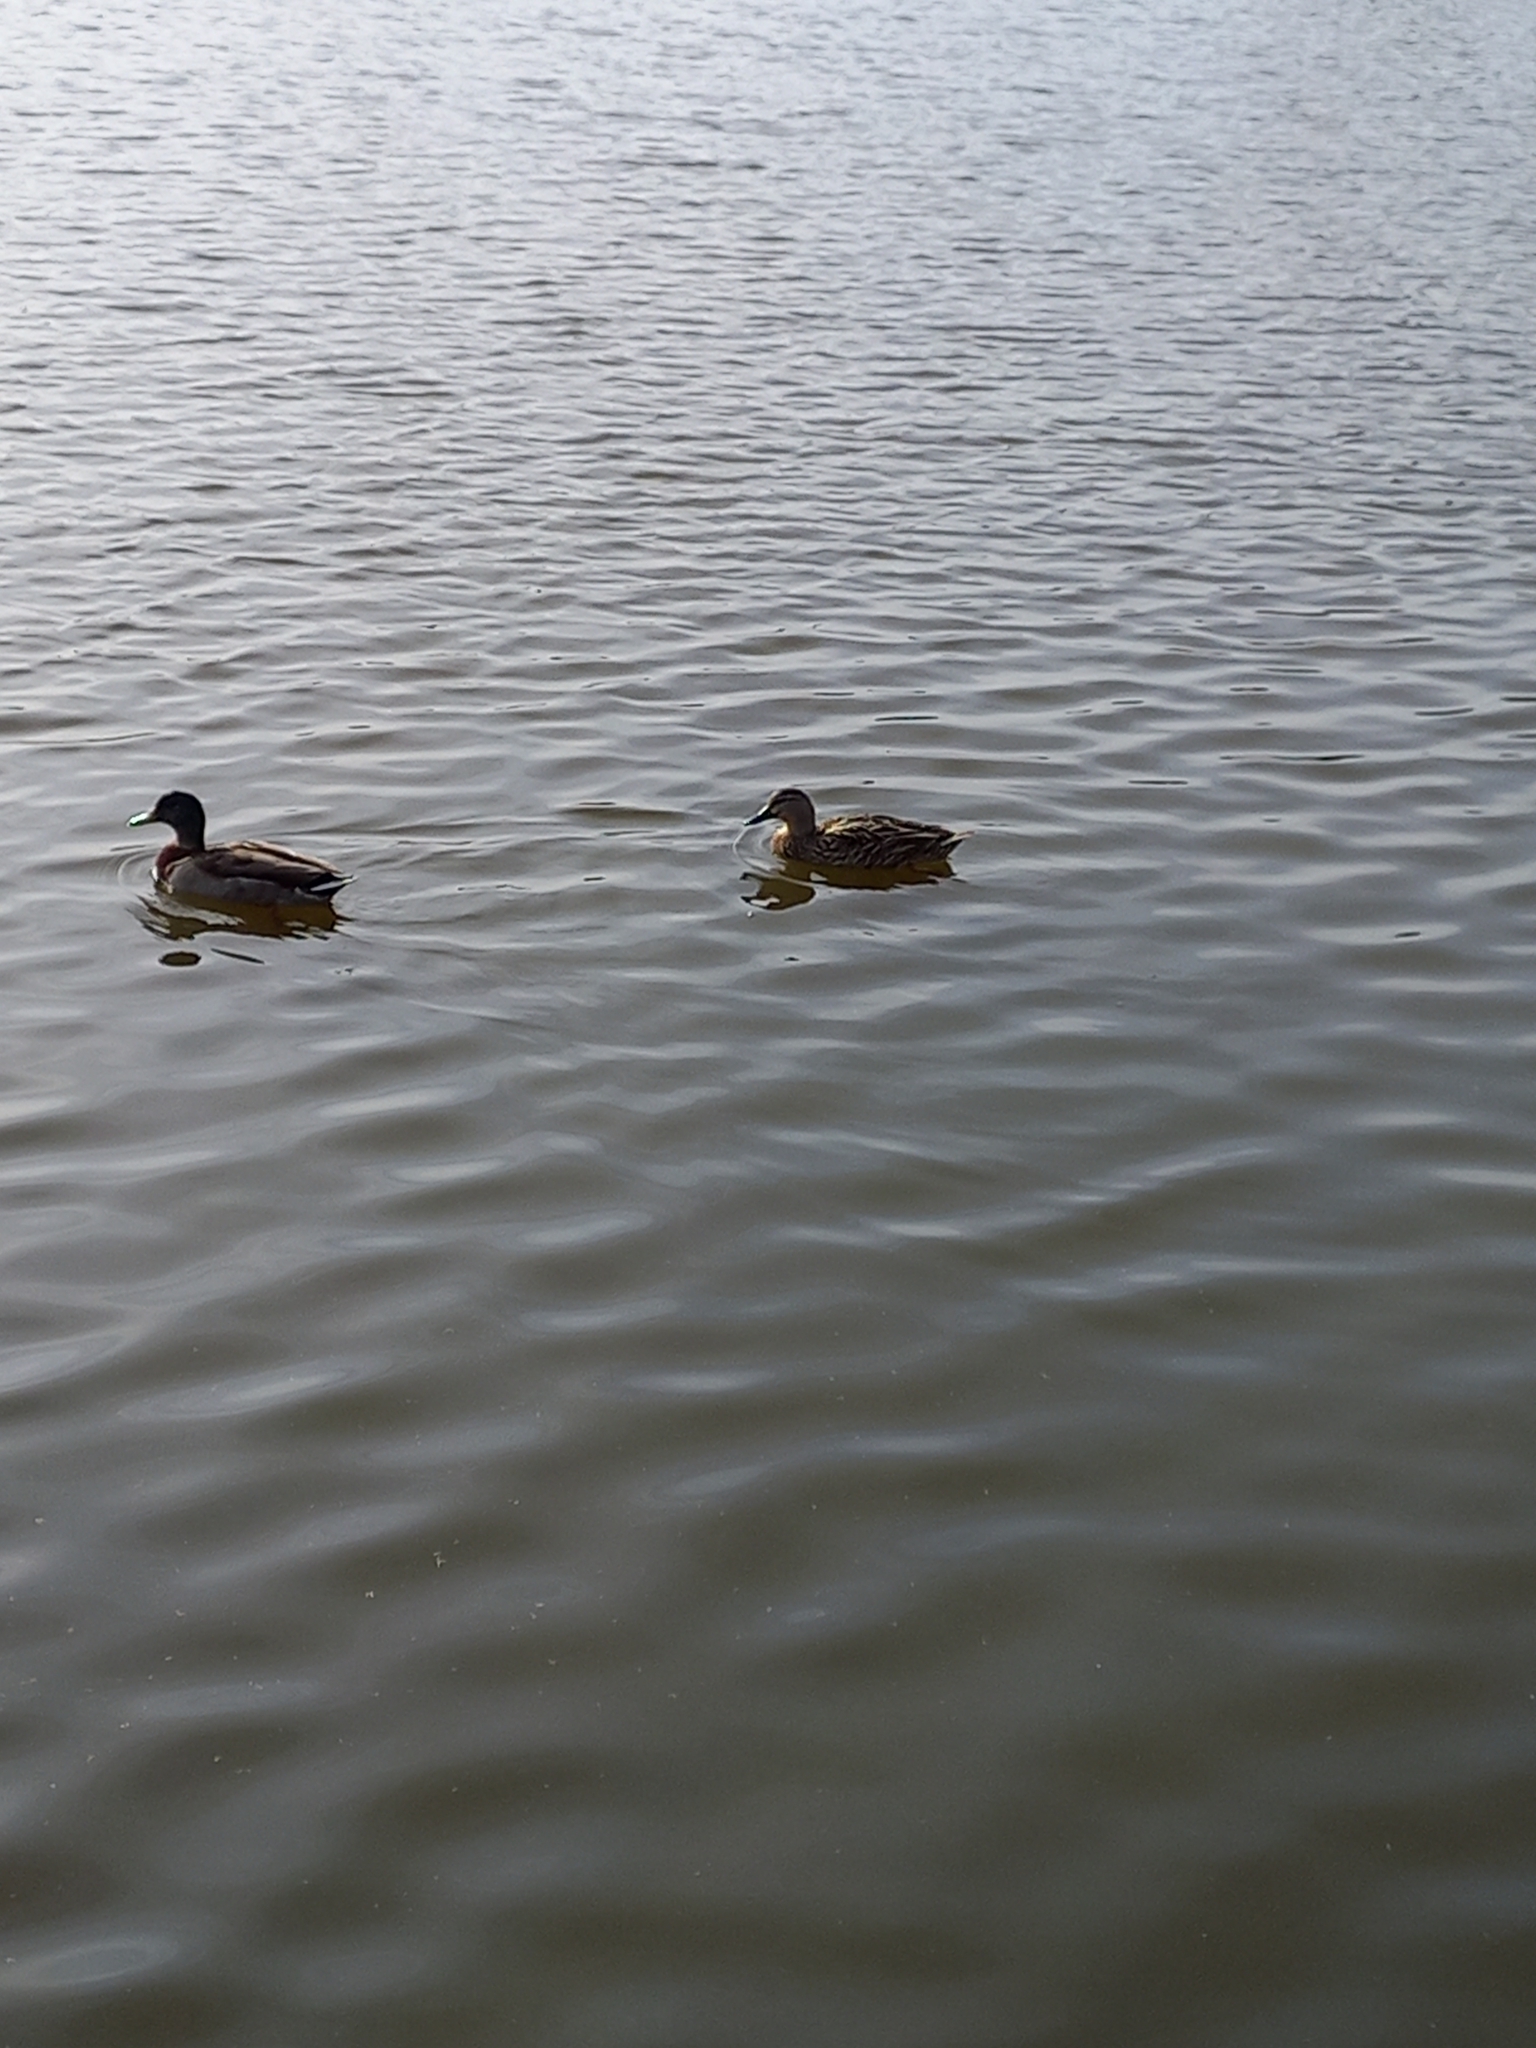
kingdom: Animalia
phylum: Chordata
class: Aves
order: Anseriformes
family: Anatidae
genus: Anas
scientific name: Anas platyrhynchos
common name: Mallard
